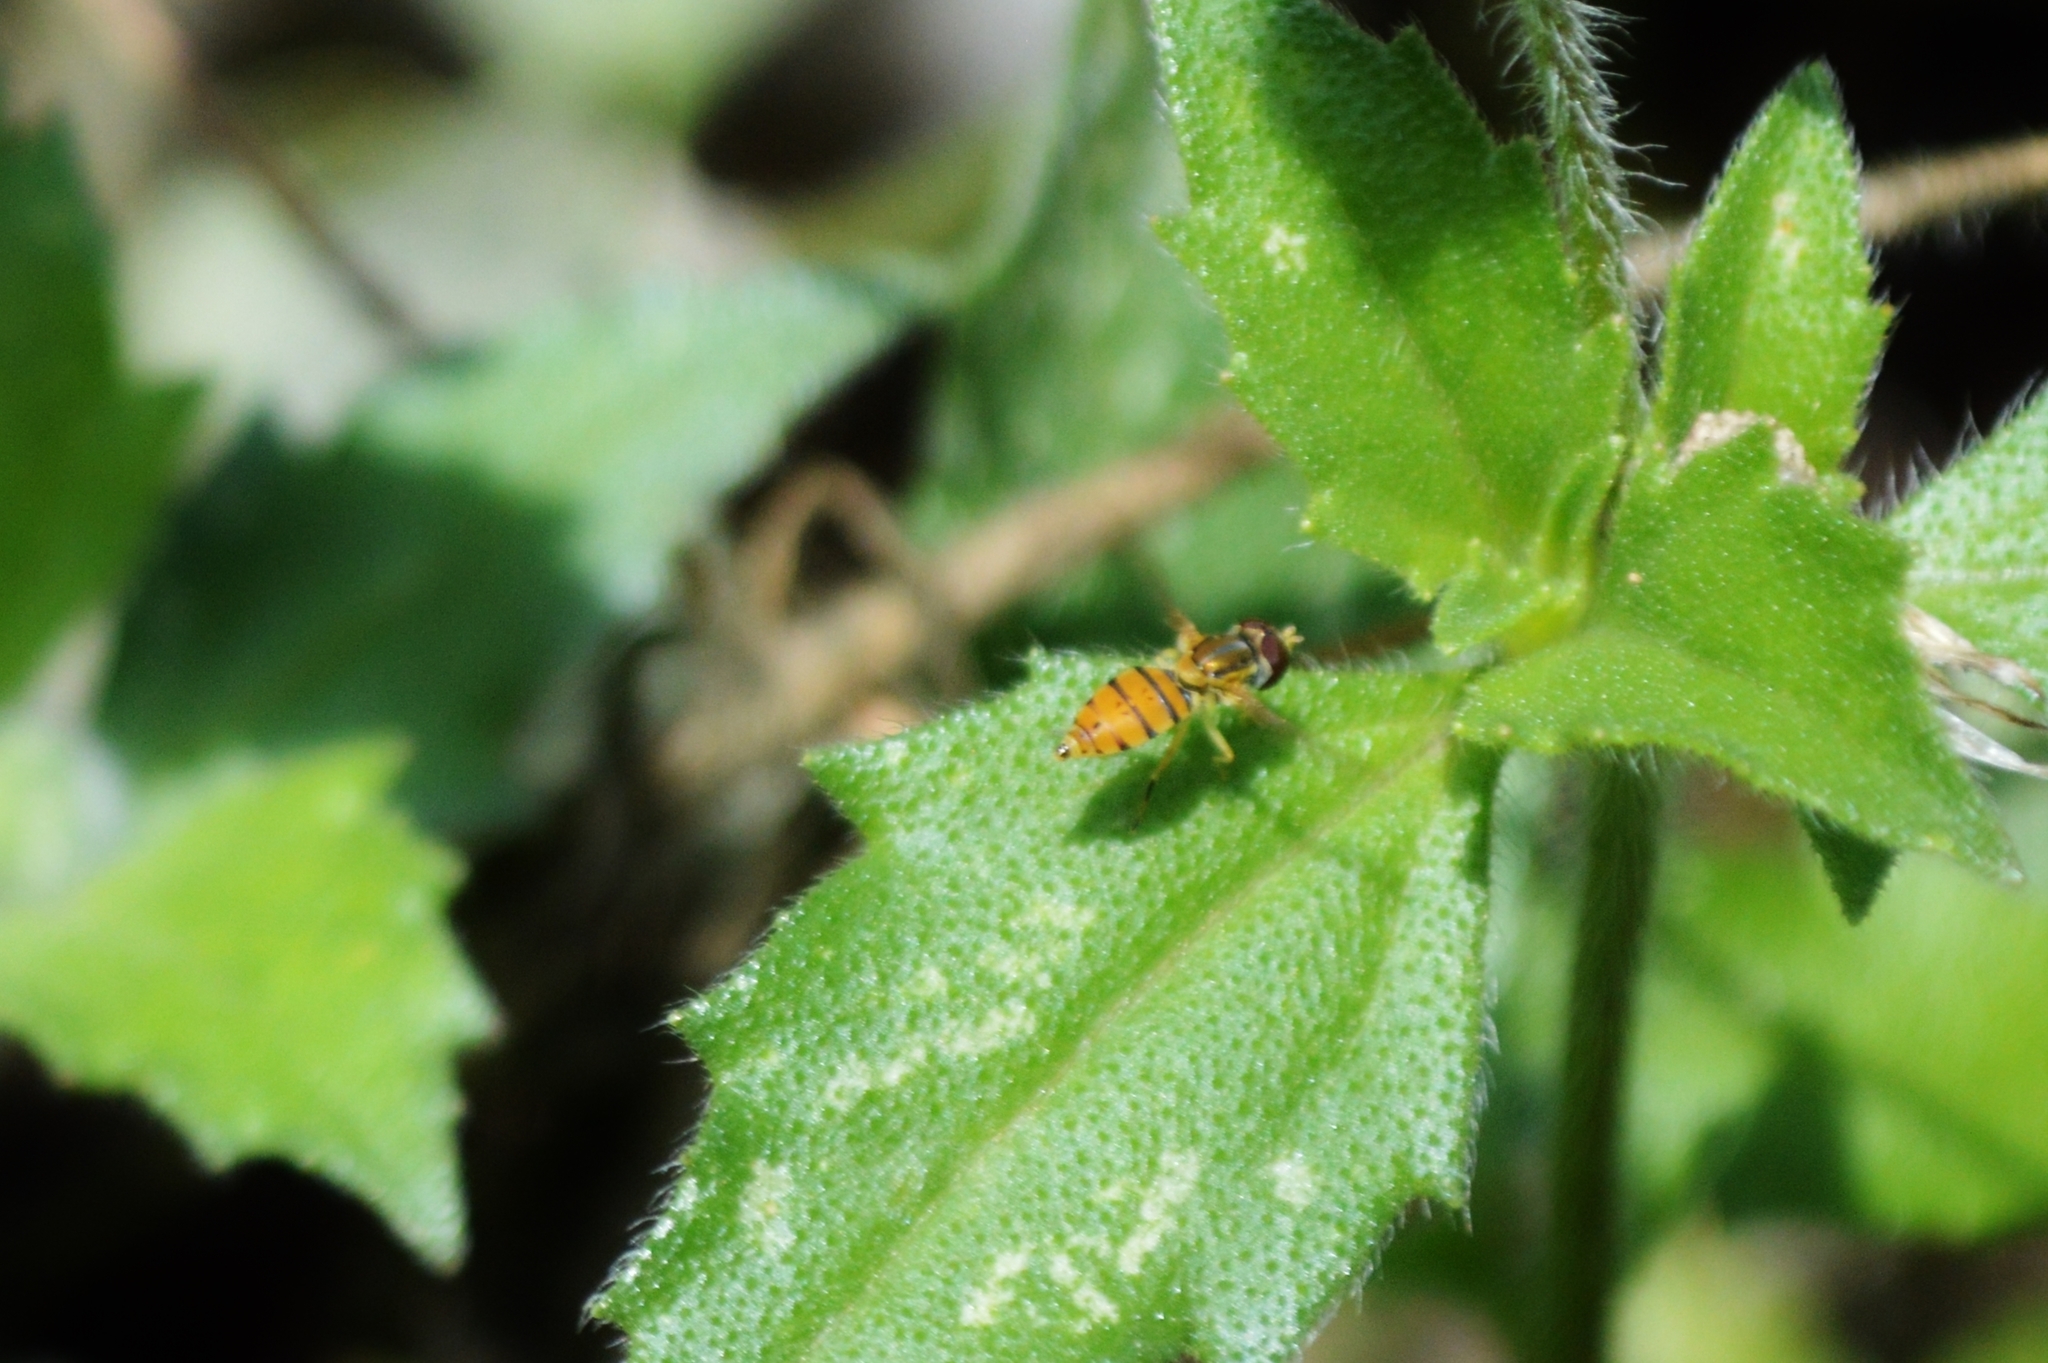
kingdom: Animalia
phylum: Arthropoda
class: Insecta
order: Diptera
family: Syrphidae
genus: Toxomerus
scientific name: Toxomerus
